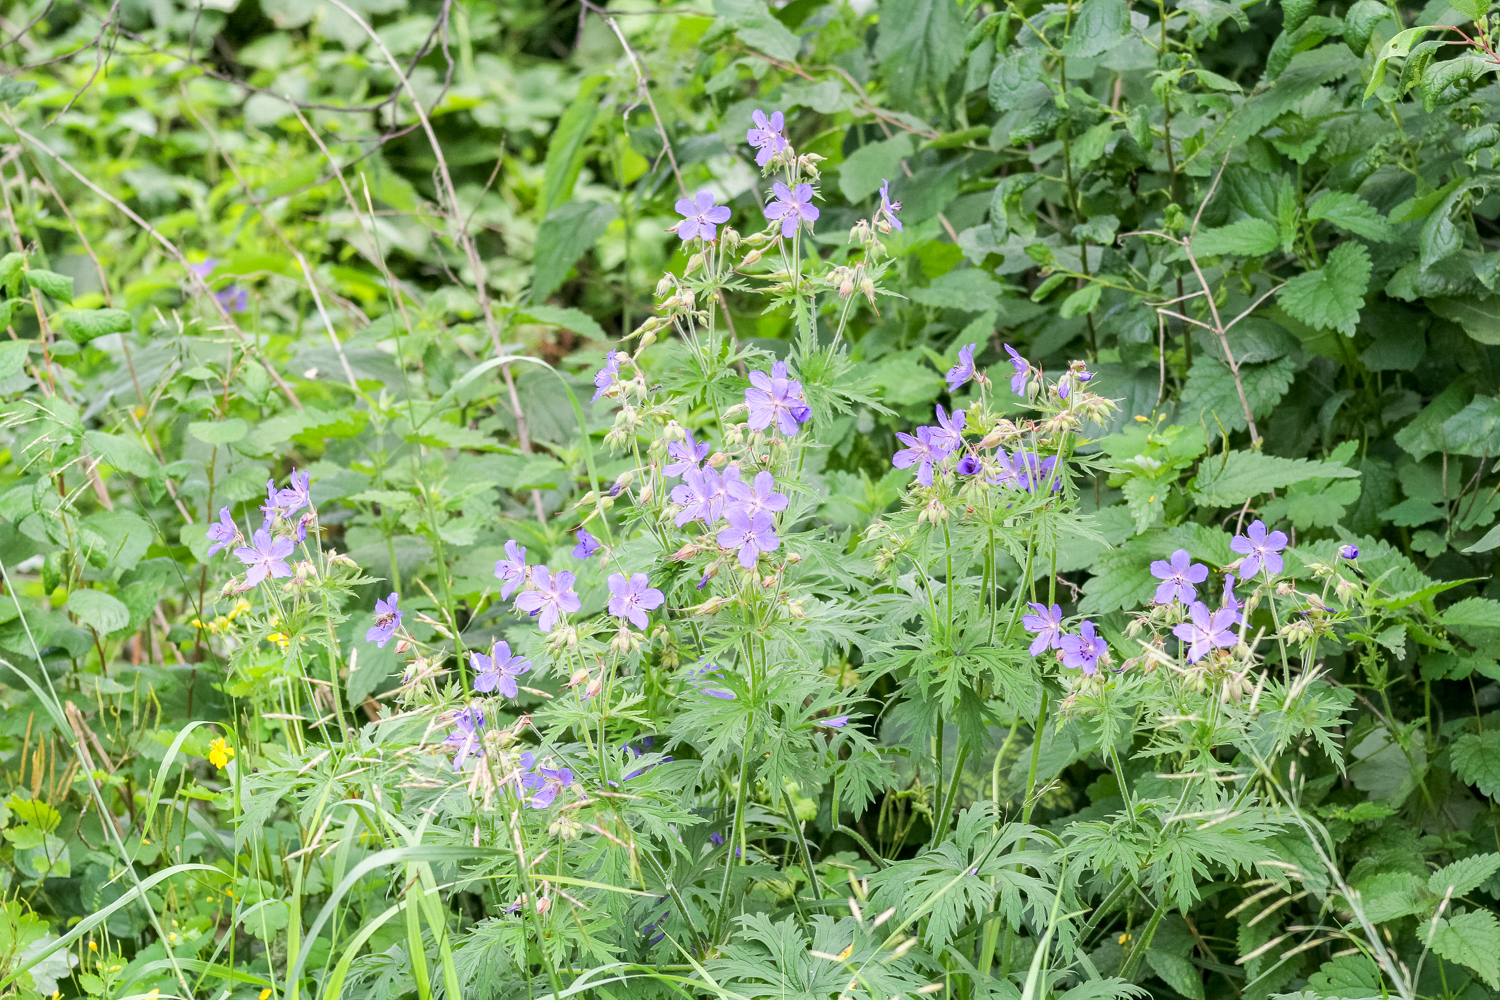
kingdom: Plantae
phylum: Tracheophyta
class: Magnoliopsida
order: Geraniales
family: Geraniaceae
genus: Geranium
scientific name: Geranium pratense
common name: Meadow crane's-bill
